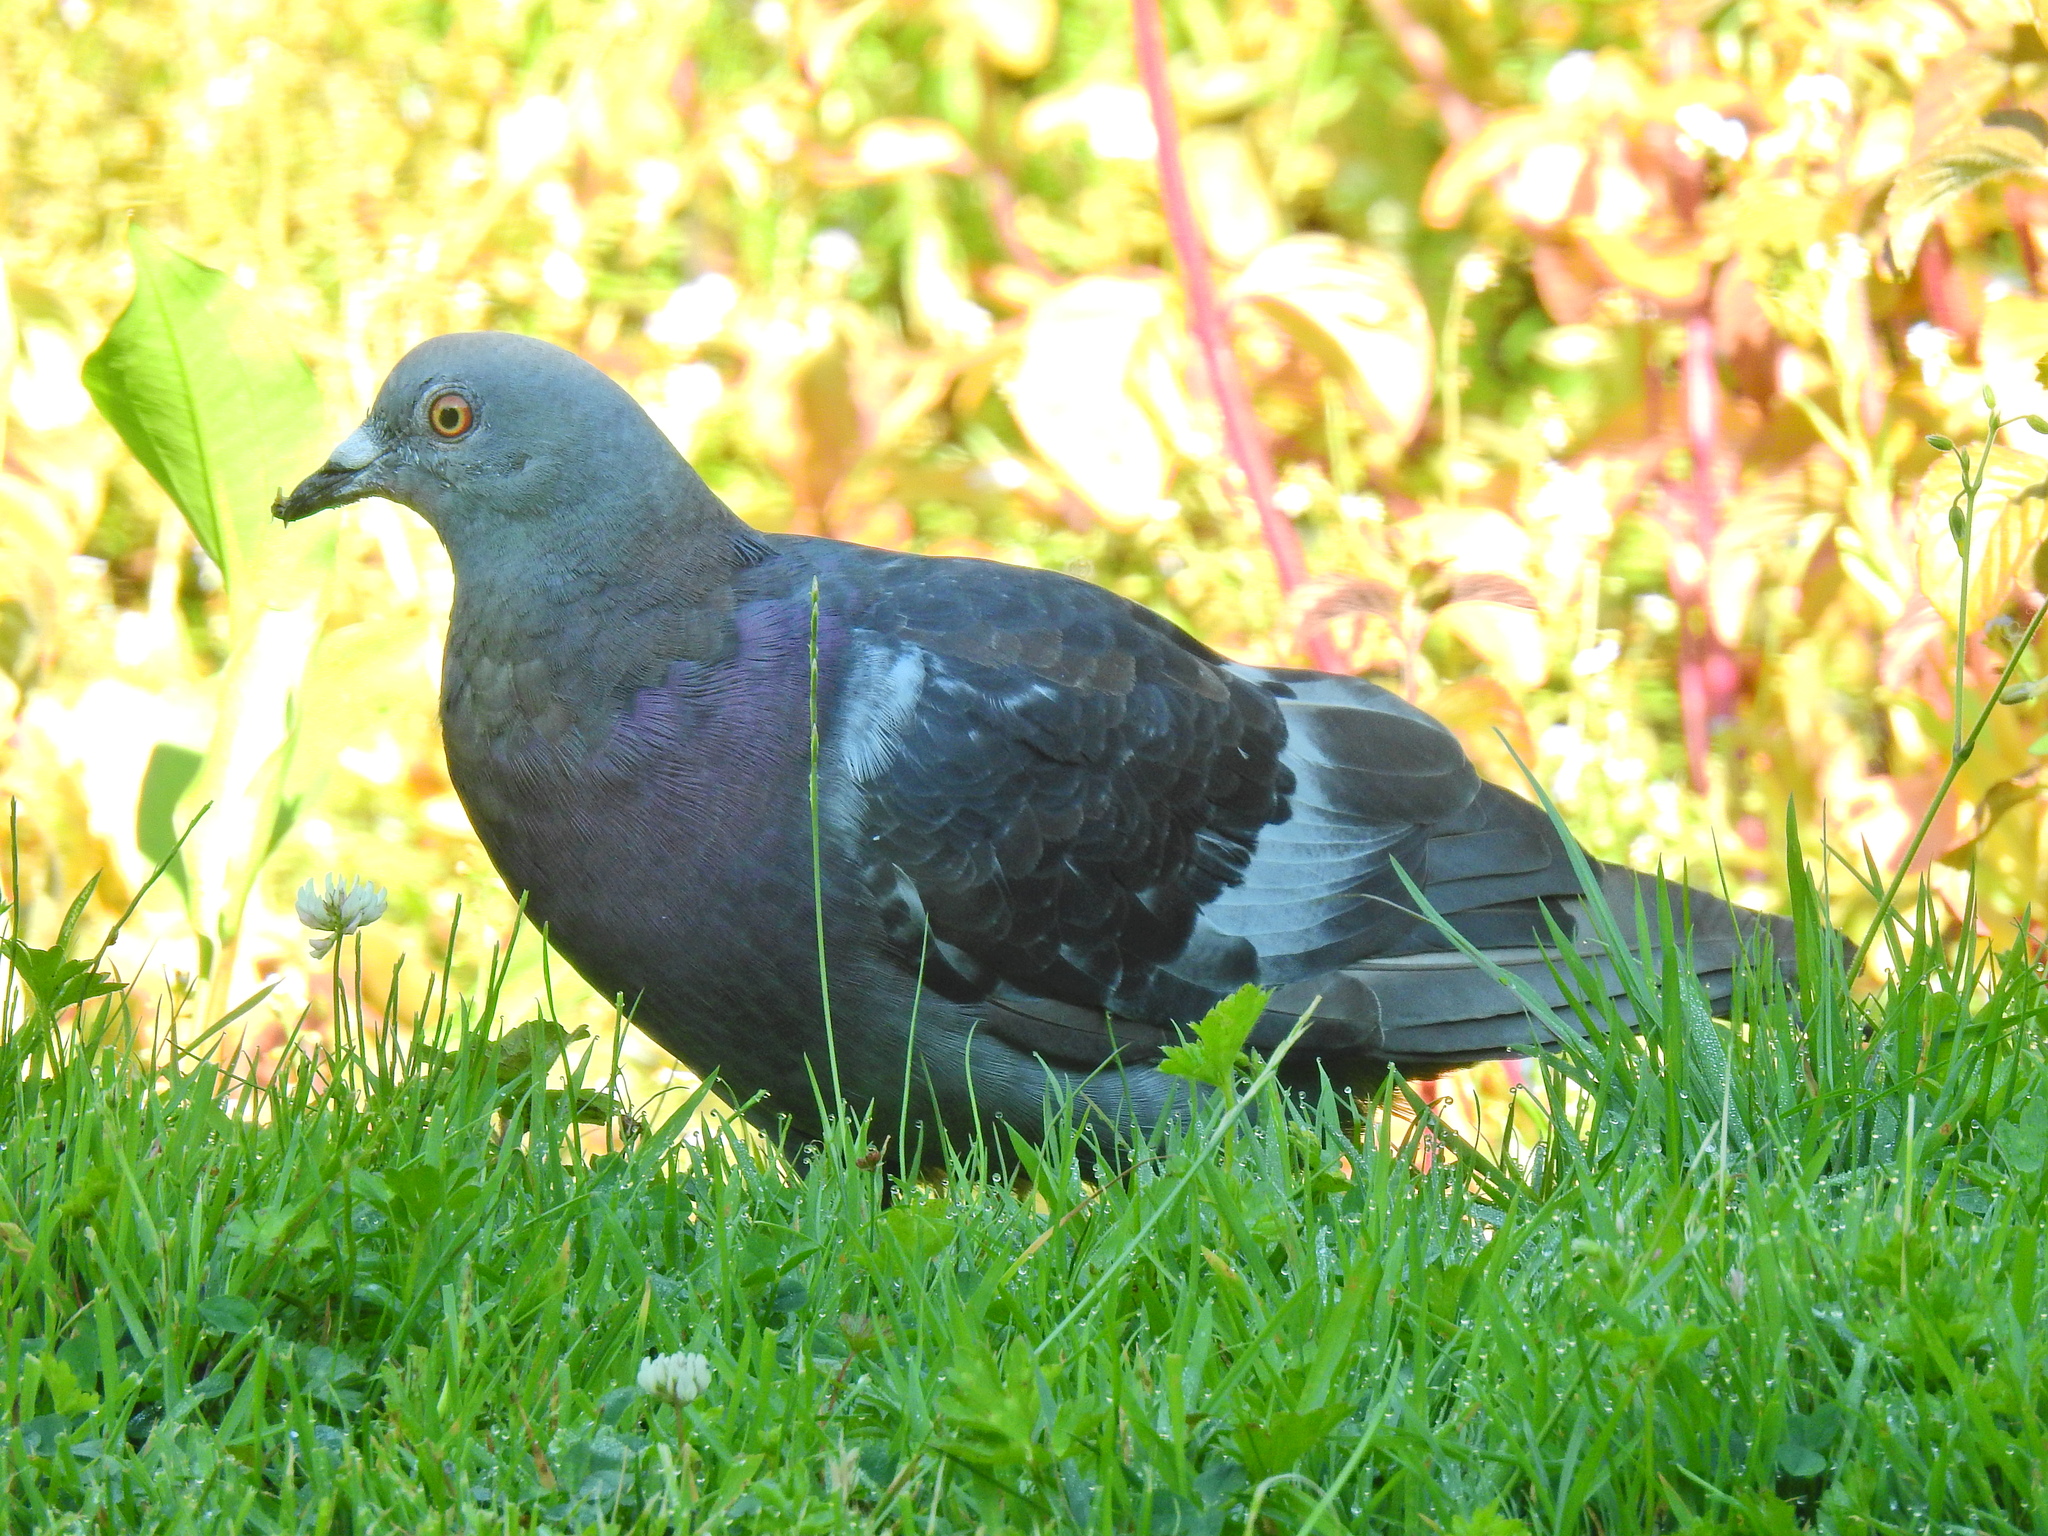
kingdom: Animalia
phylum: Chordata
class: Aves
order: Columbiformes
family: Columbidae
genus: Columba
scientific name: Columba livia
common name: Rock pigeon
